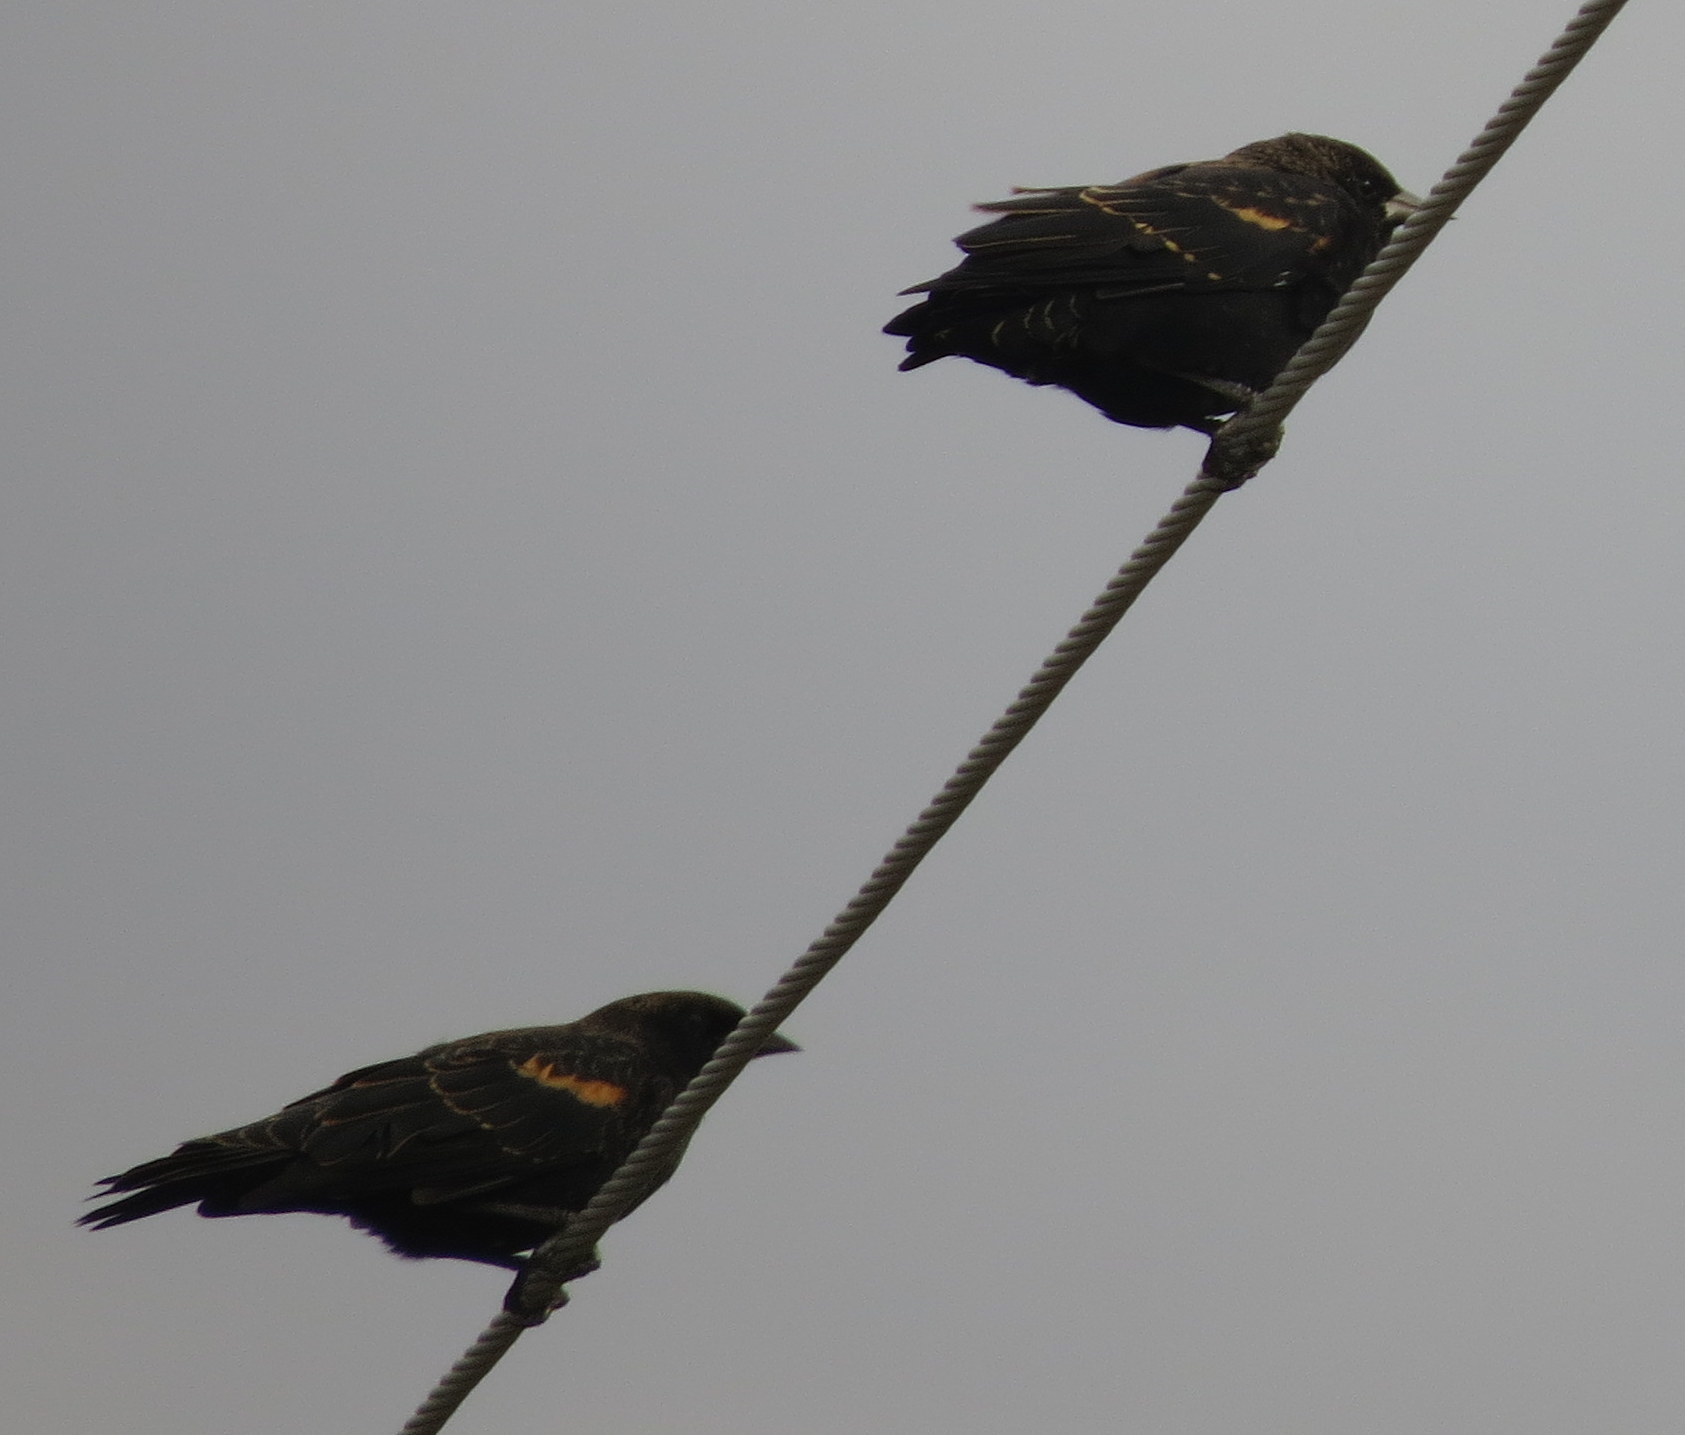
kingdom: Animalia
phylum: Chordata
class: Aves
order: Passeriformes
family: Icteridae
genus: Agelaius
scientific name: Agelaius phoeniceus
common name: Red-winged blackbird
